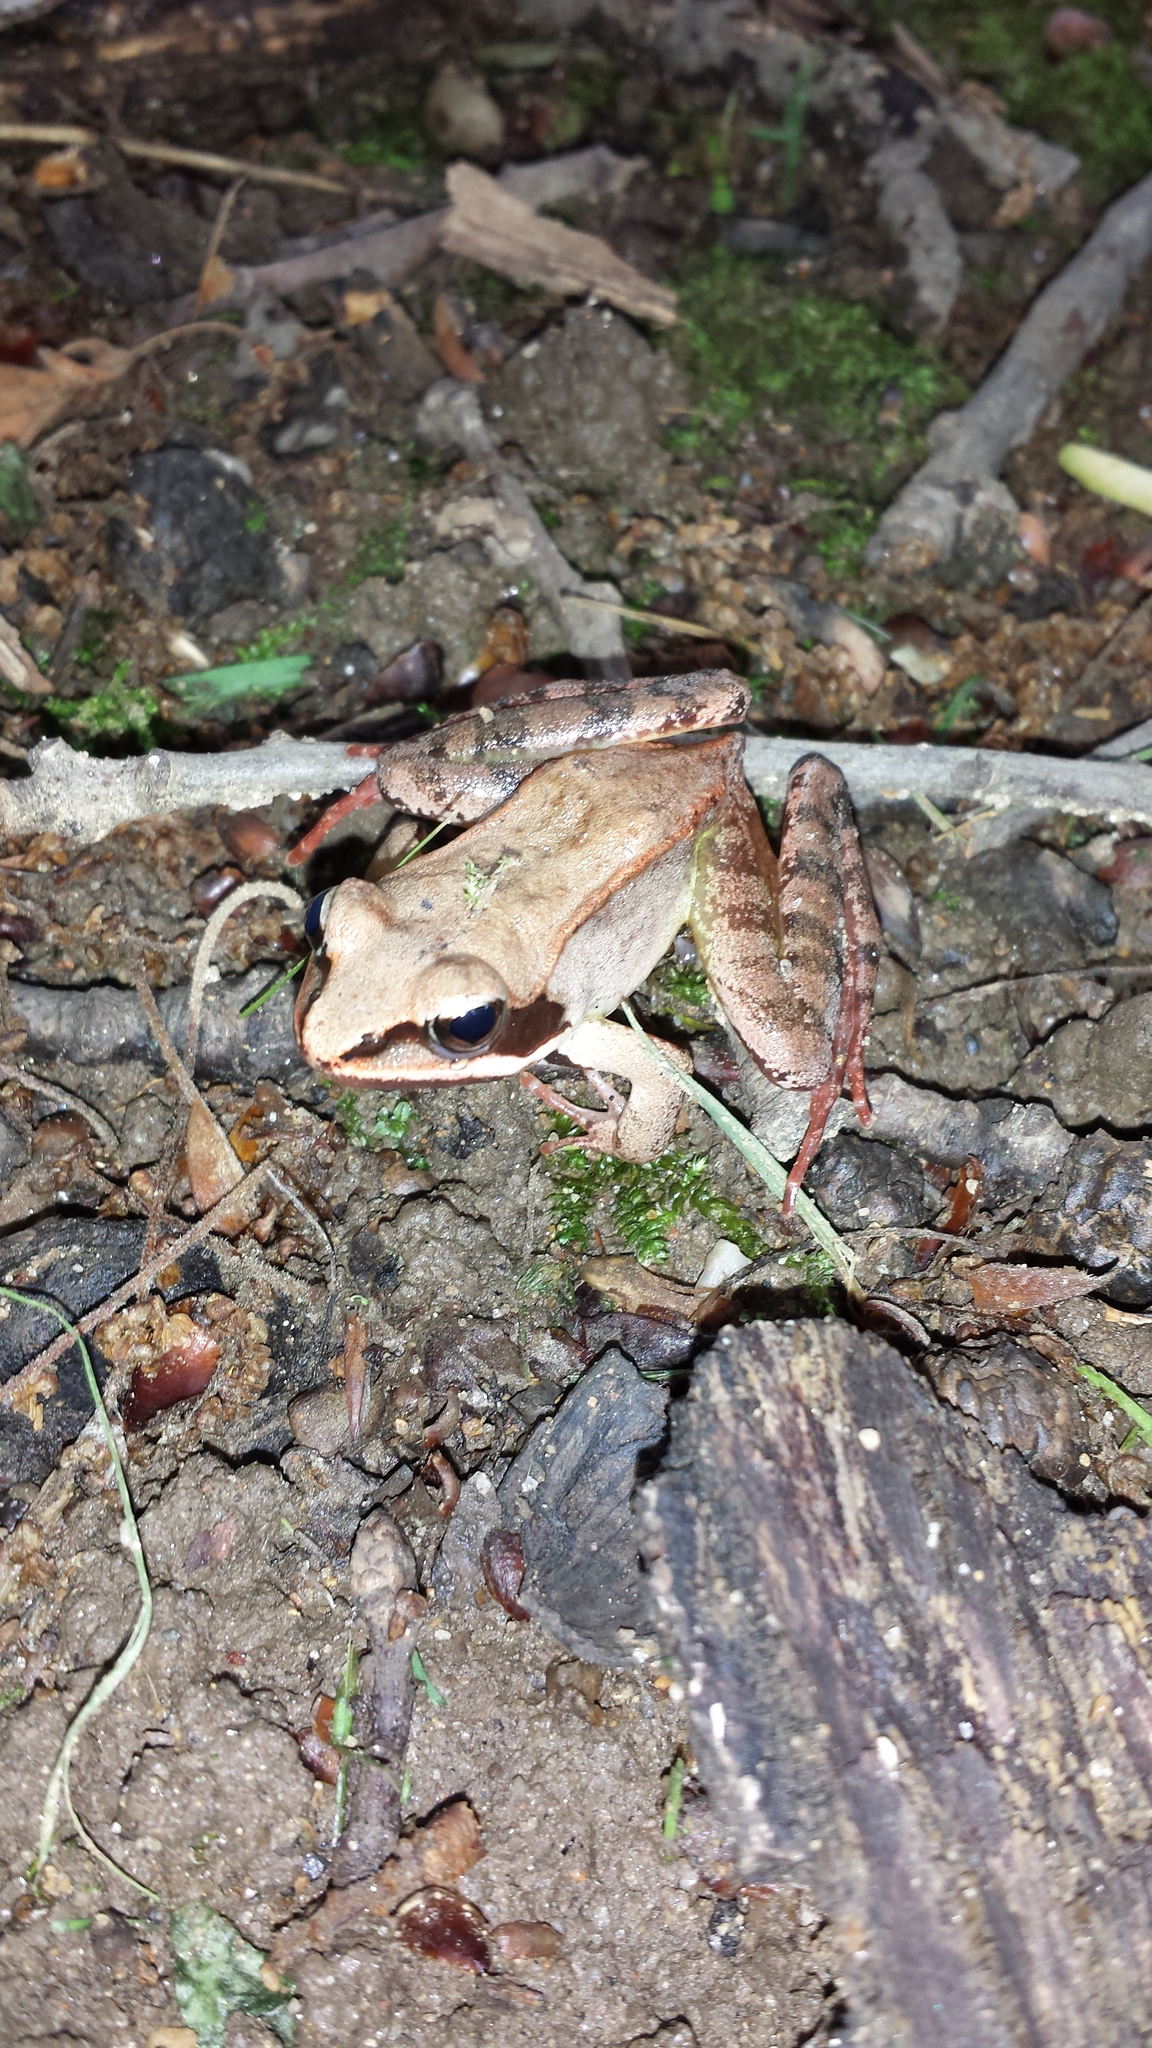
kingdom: Animalia
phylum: Chordata
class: Amphibia
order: Anura
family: Ranidae
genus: Lithobates
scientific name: Lithobates sylvaticus
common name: Wood frog
